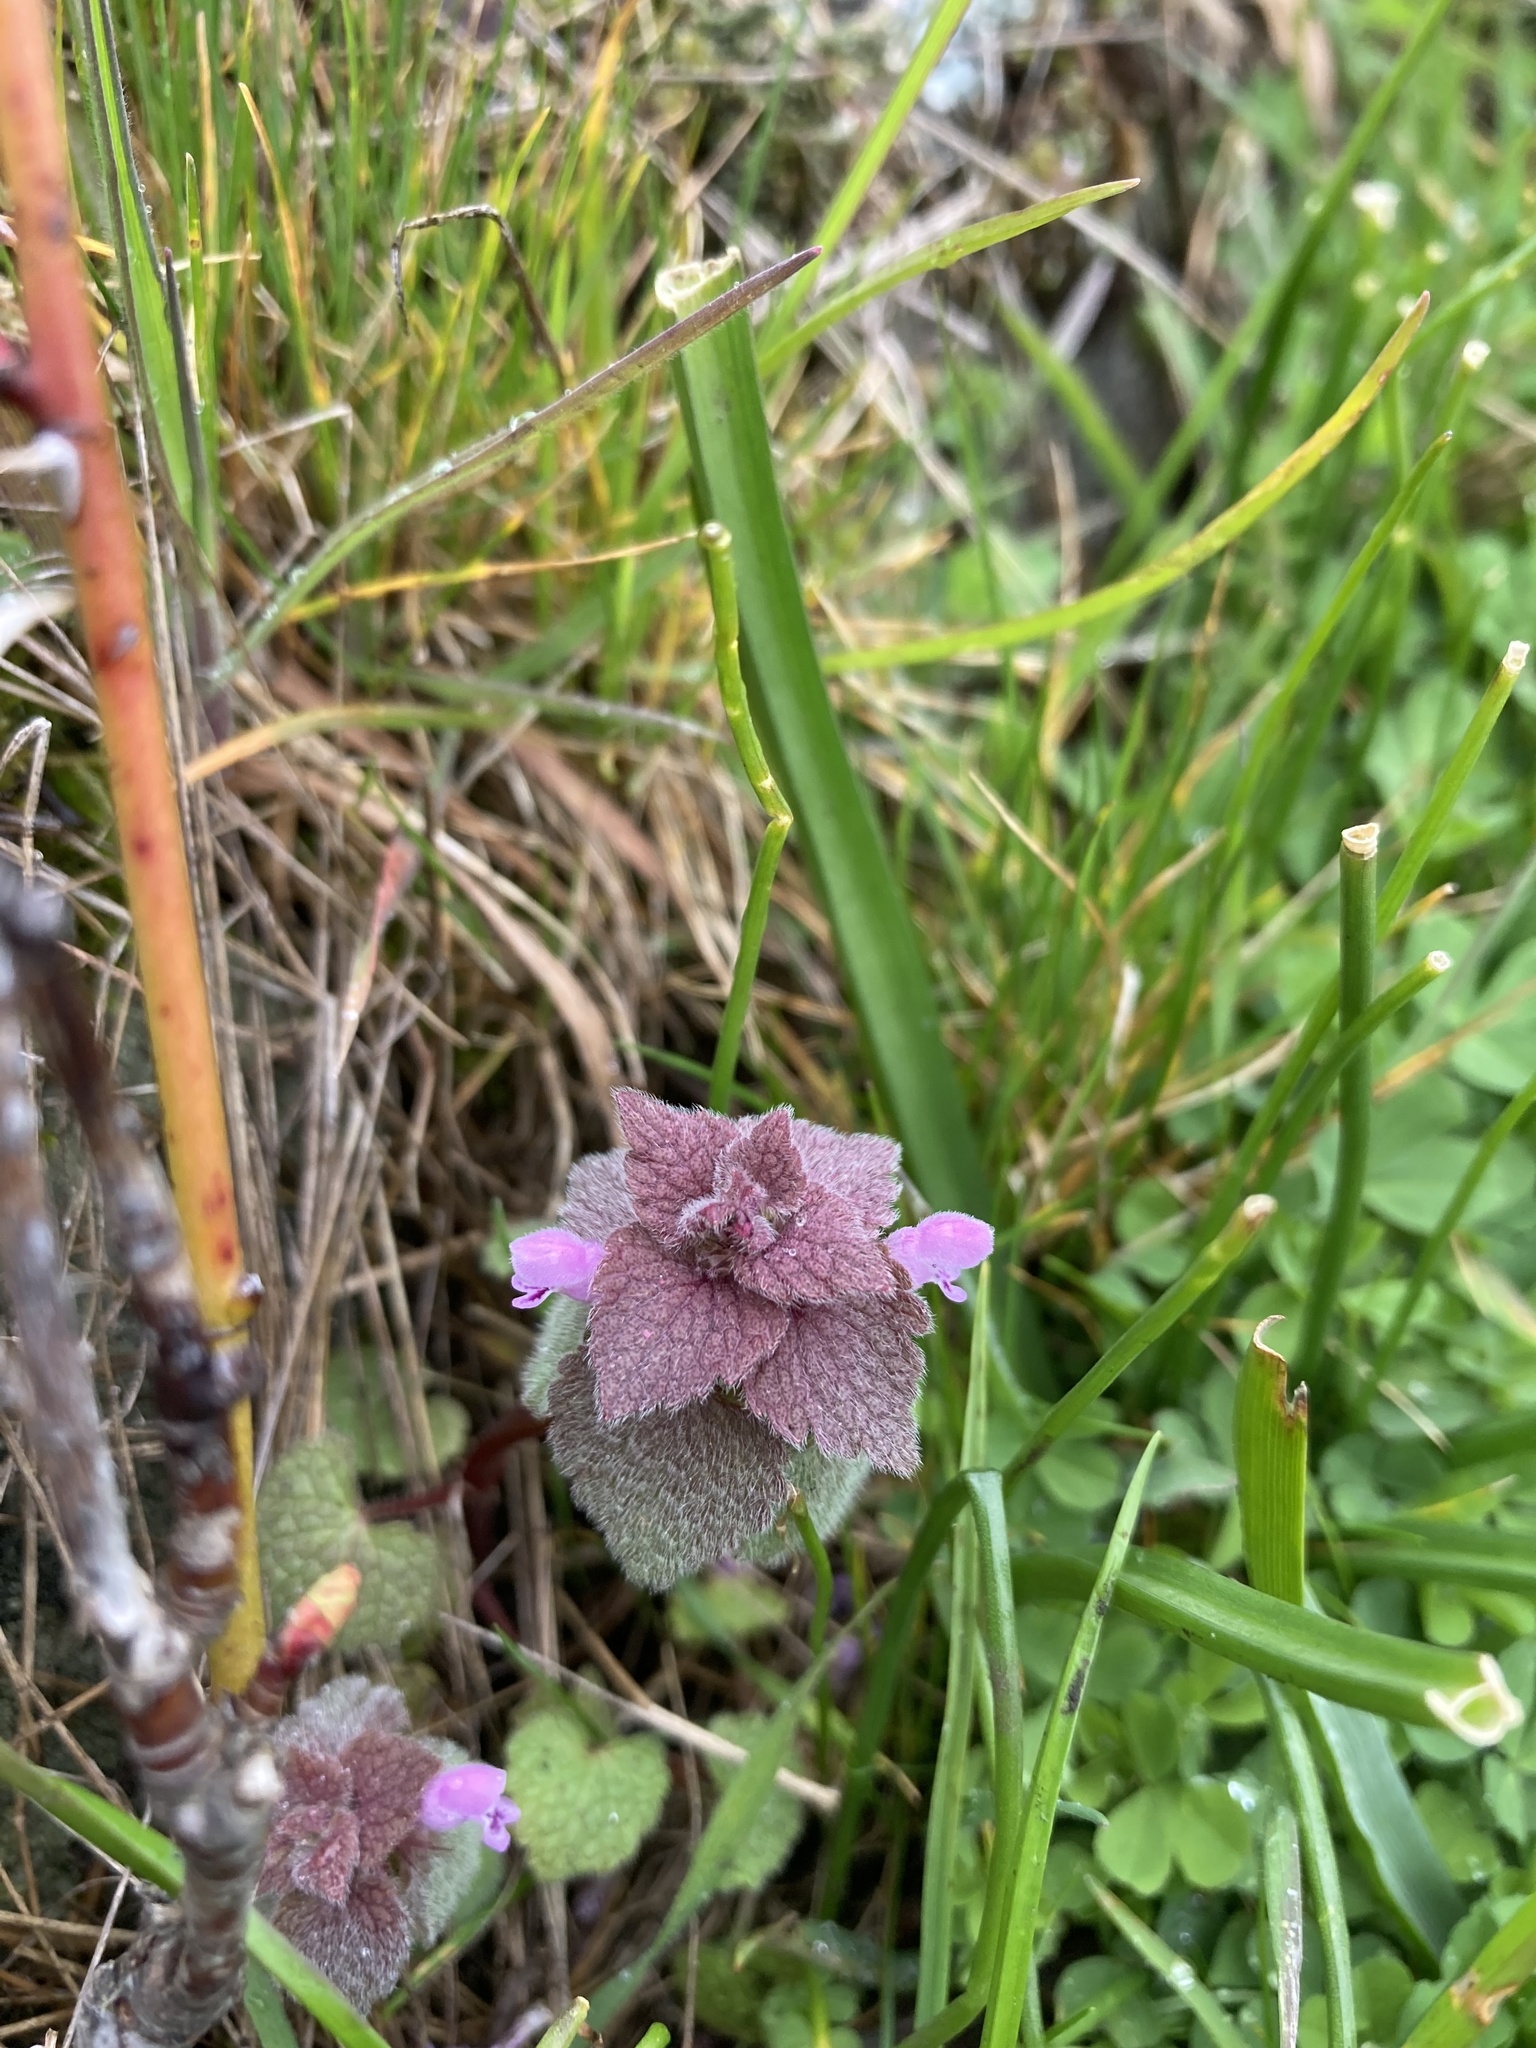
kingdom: Plantae
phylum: Tracheophyta
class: Magnoliopsida
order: Lamiales
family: Lamiaceae
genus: Lamium
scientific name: Lamium purpureum
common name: Red dead-nettle
